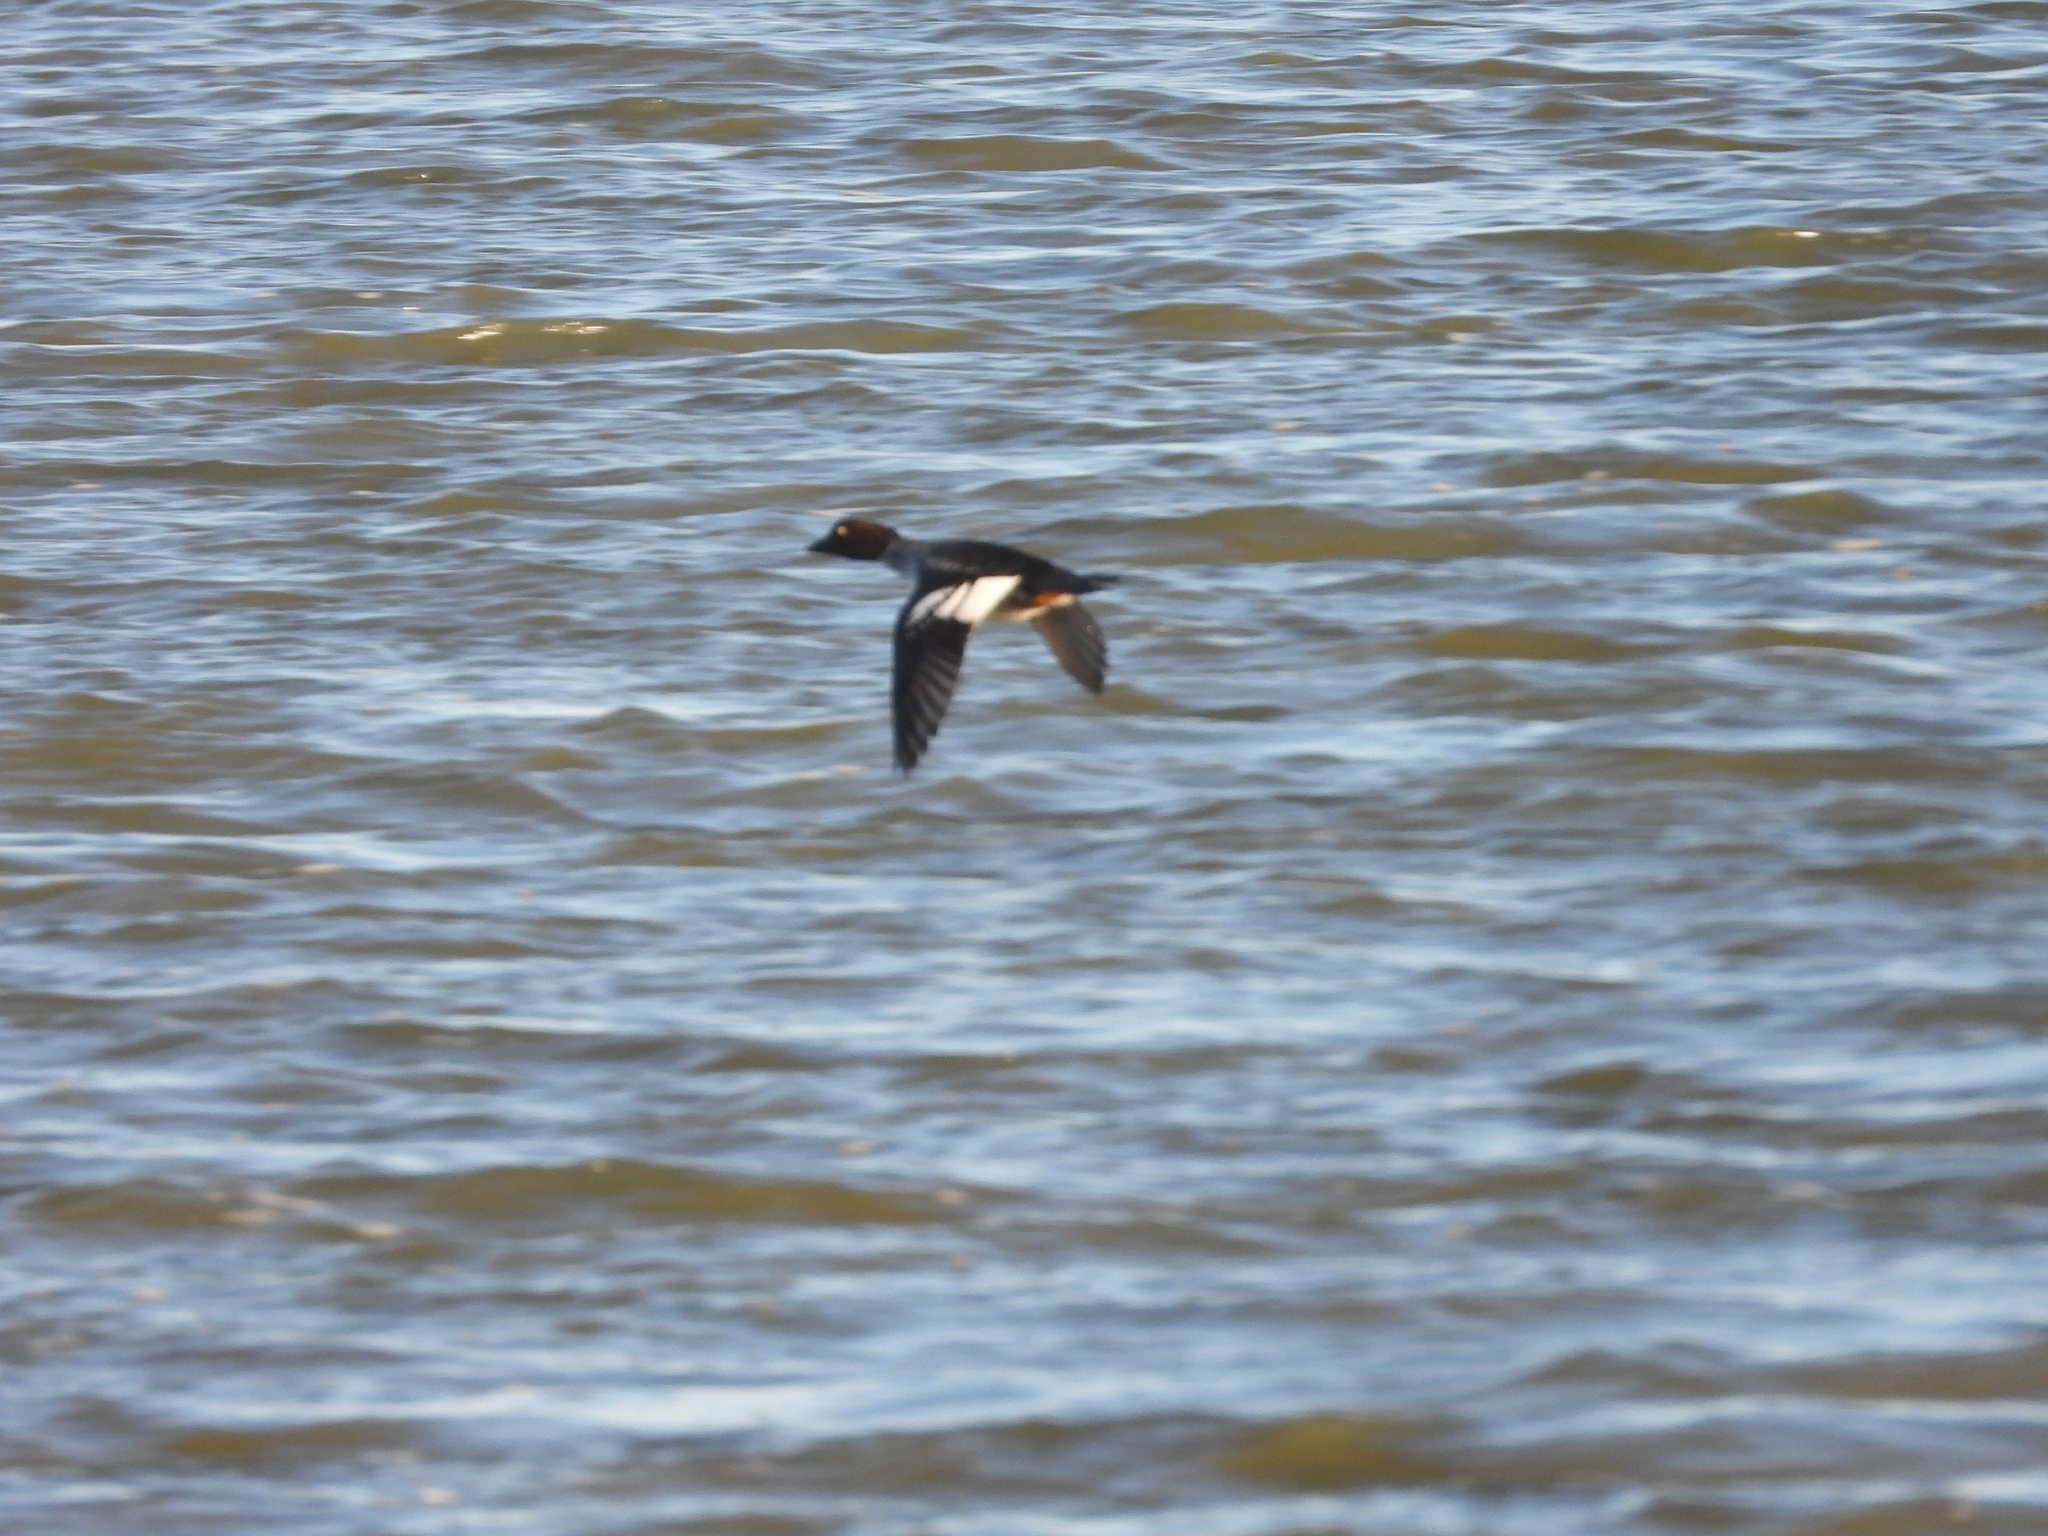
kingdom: Animalia
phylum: Chordata
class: Aves
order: Anseriformes
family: Anatidae
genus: Bucephala
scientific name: Bucephala clangula
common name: Common goldeneye
